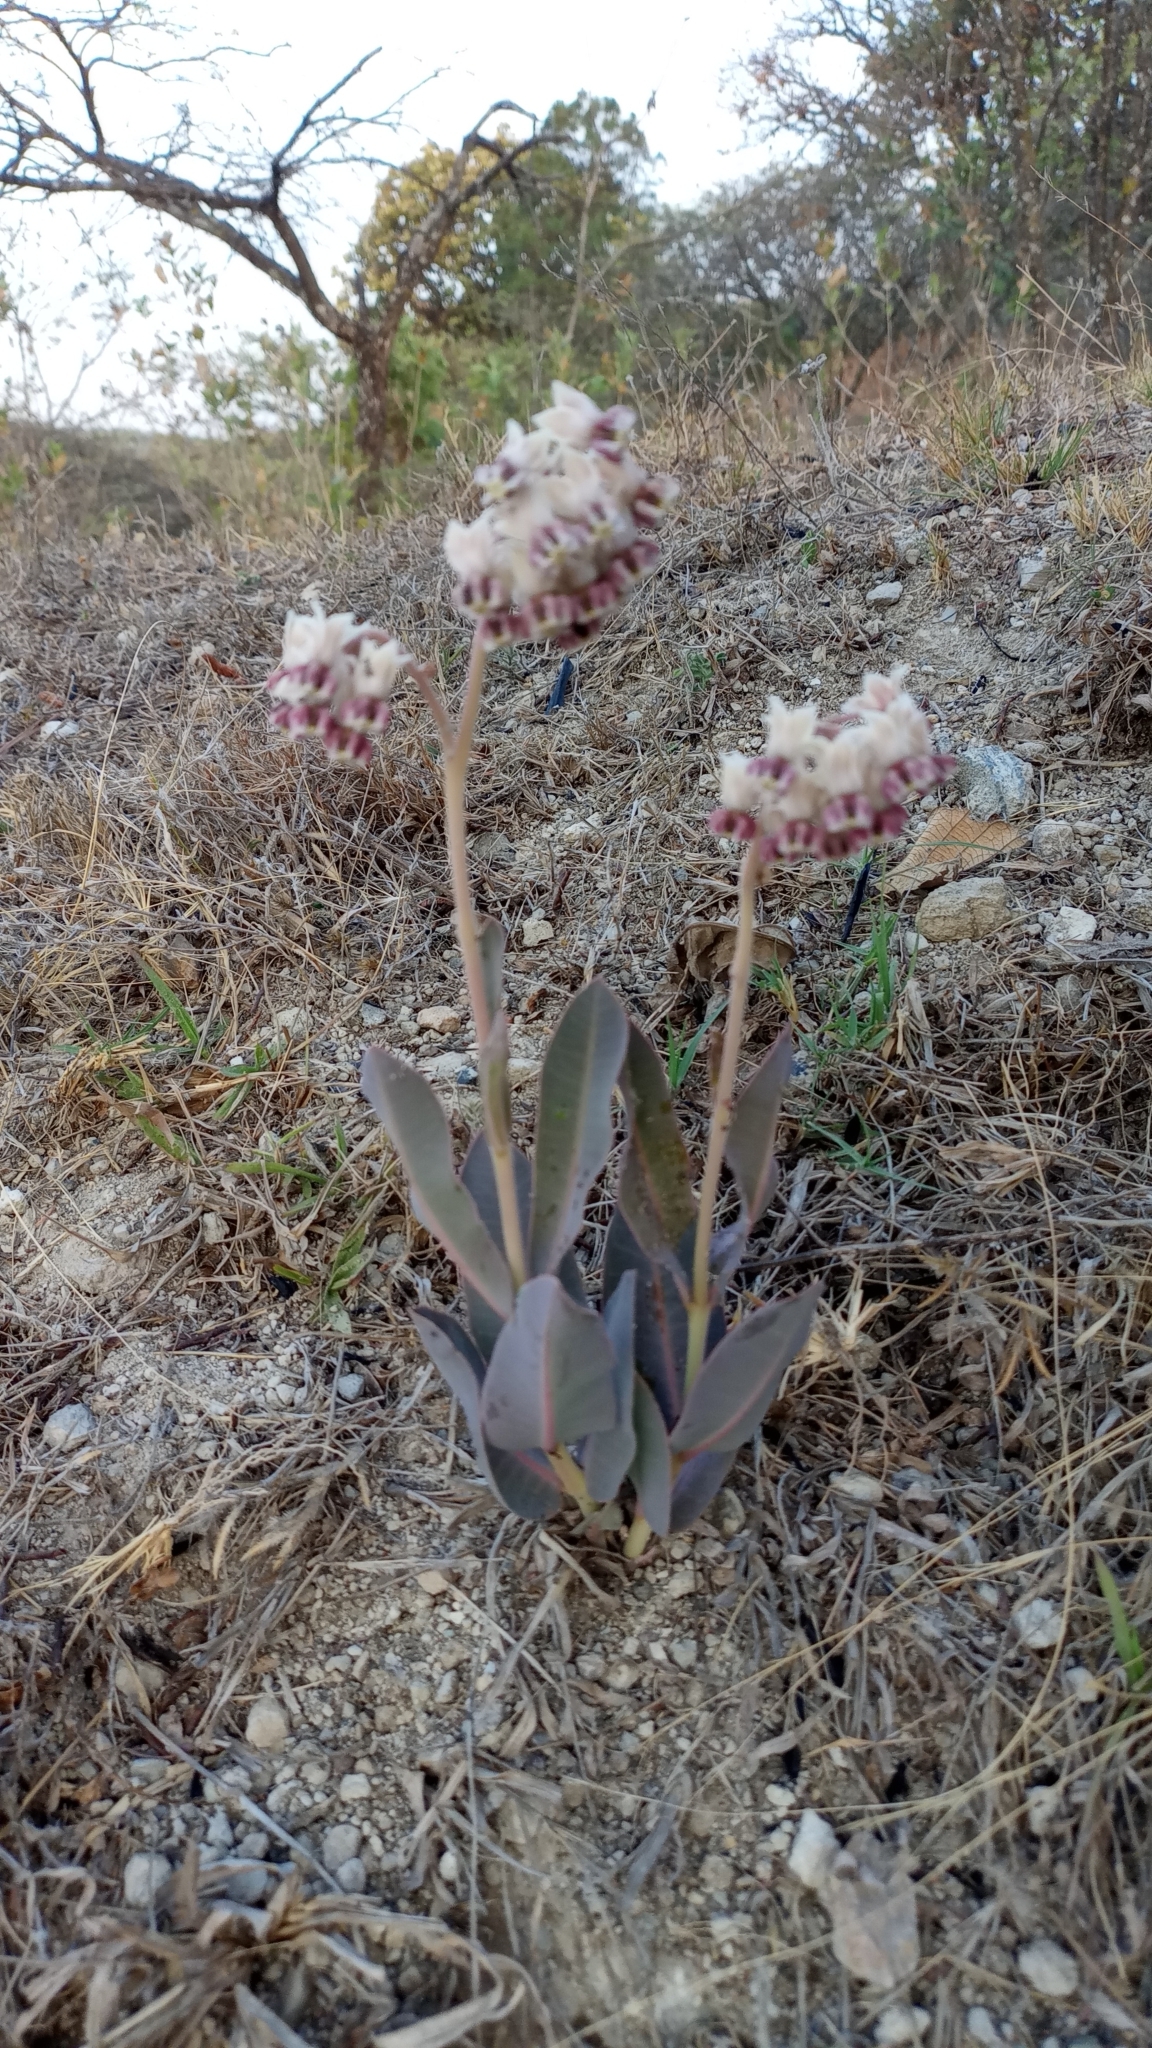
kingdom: Plantae
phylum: Tracheophyta
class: Magnoliopsida
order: Gentianales
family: Apocynaceae
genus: Asclepias
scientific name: Asclepias graogramanii
